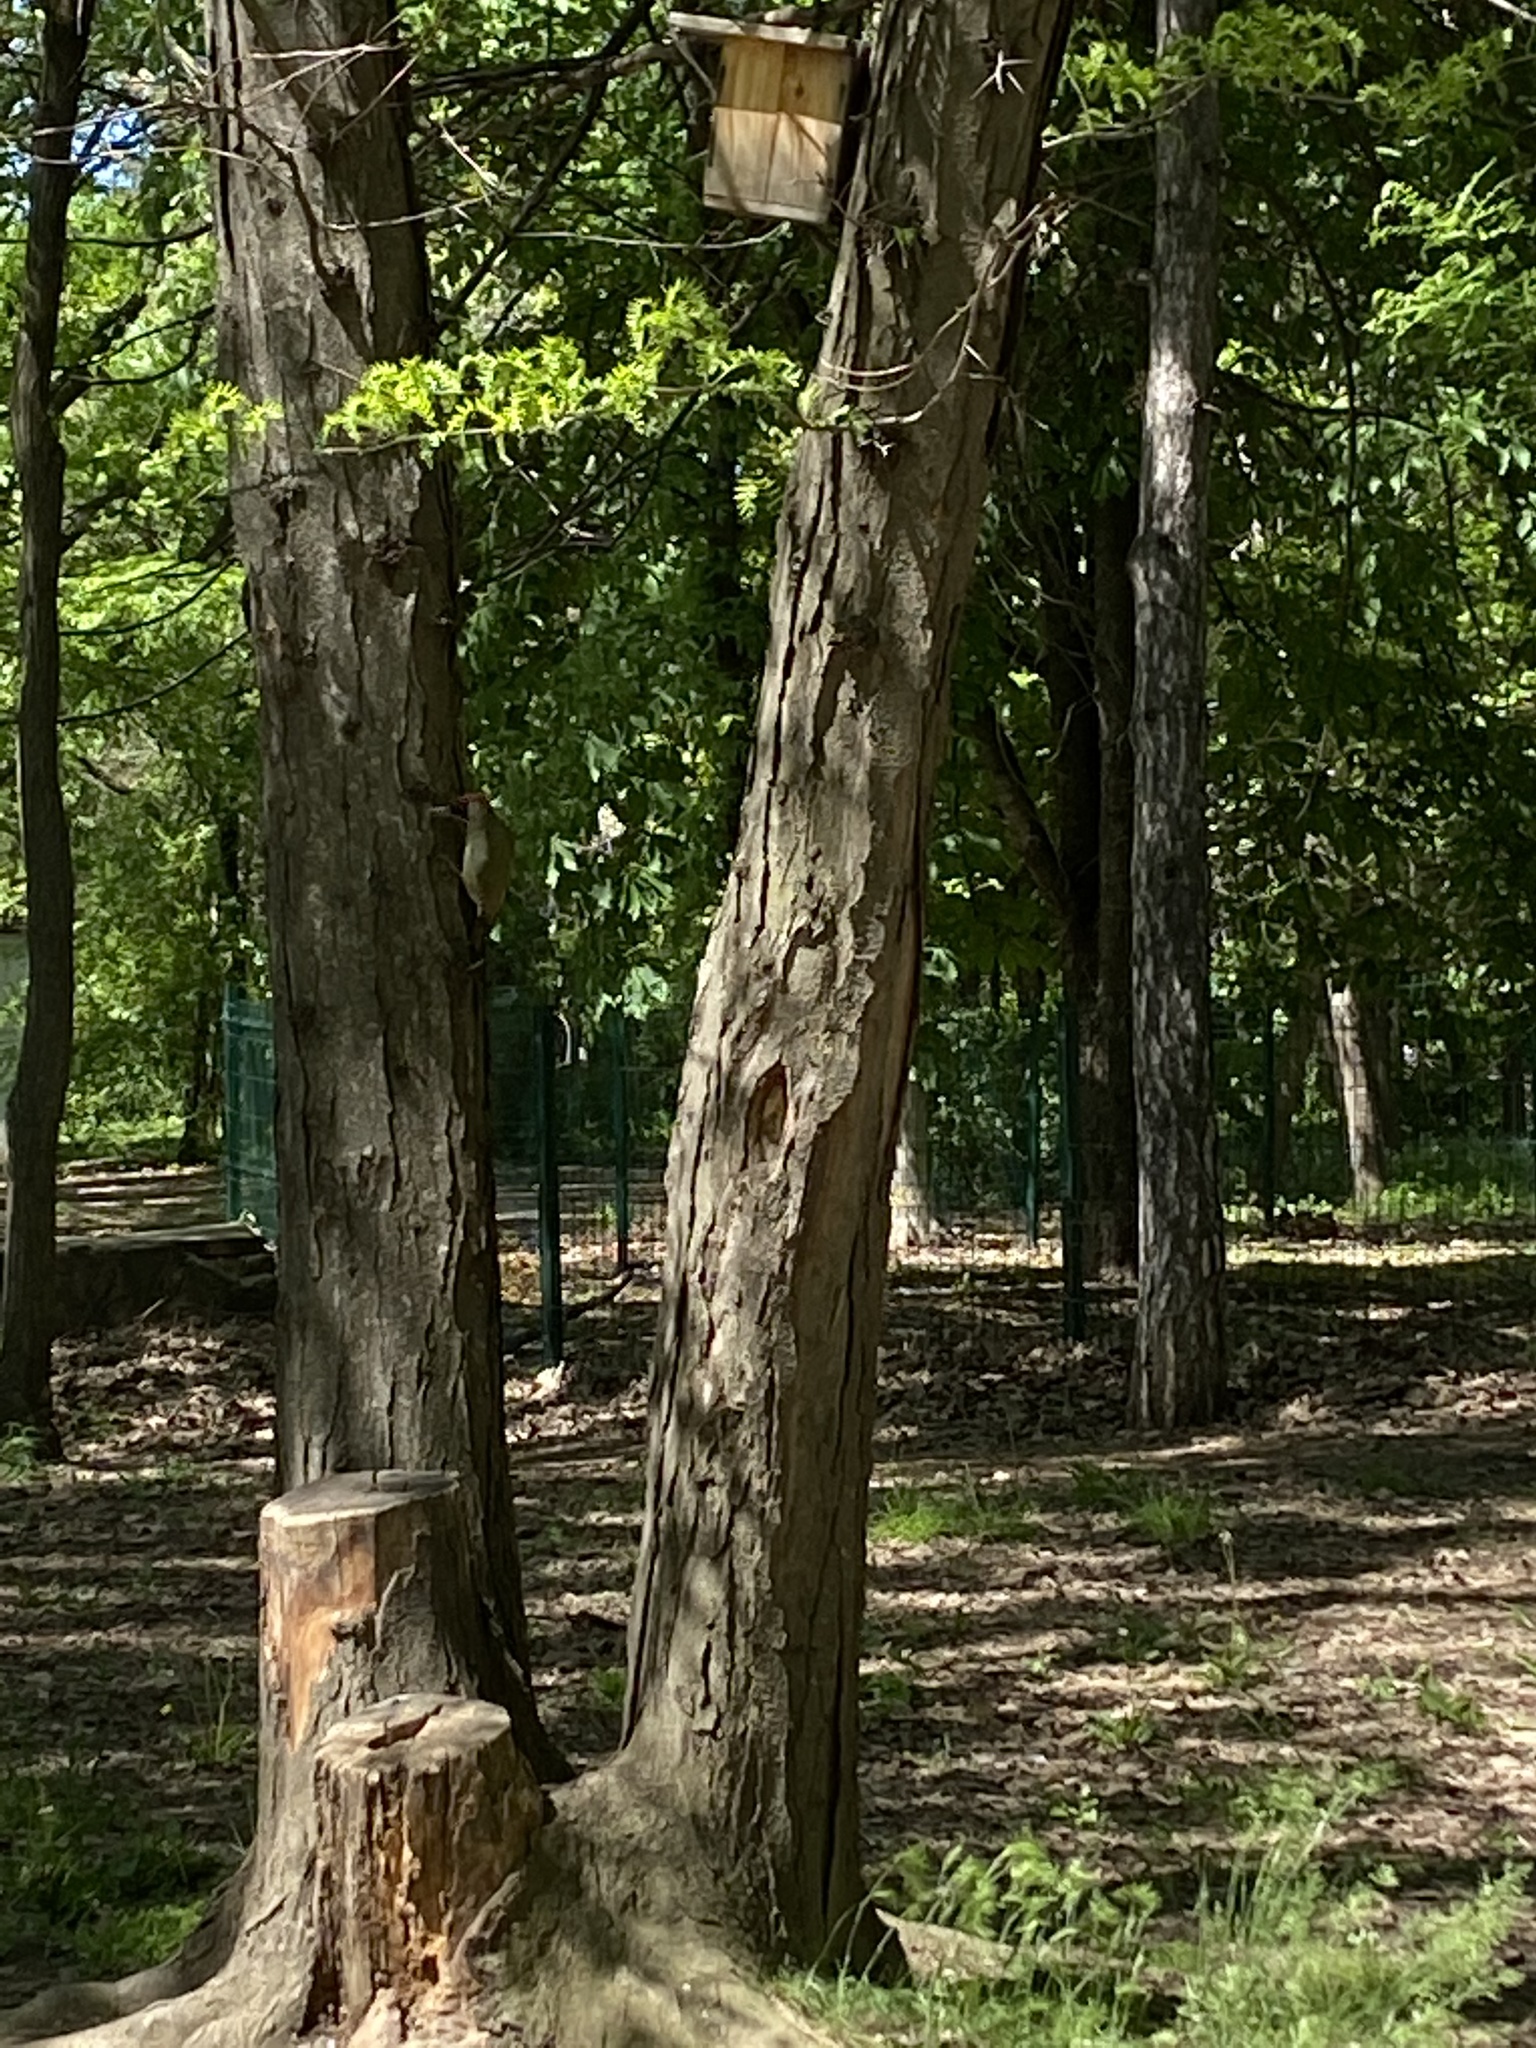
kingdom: Animalia
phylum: Chordata
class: Aves
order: Piciformes
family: Picidae
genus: Picus
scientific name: Picus viridis
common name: European green woodpecker
